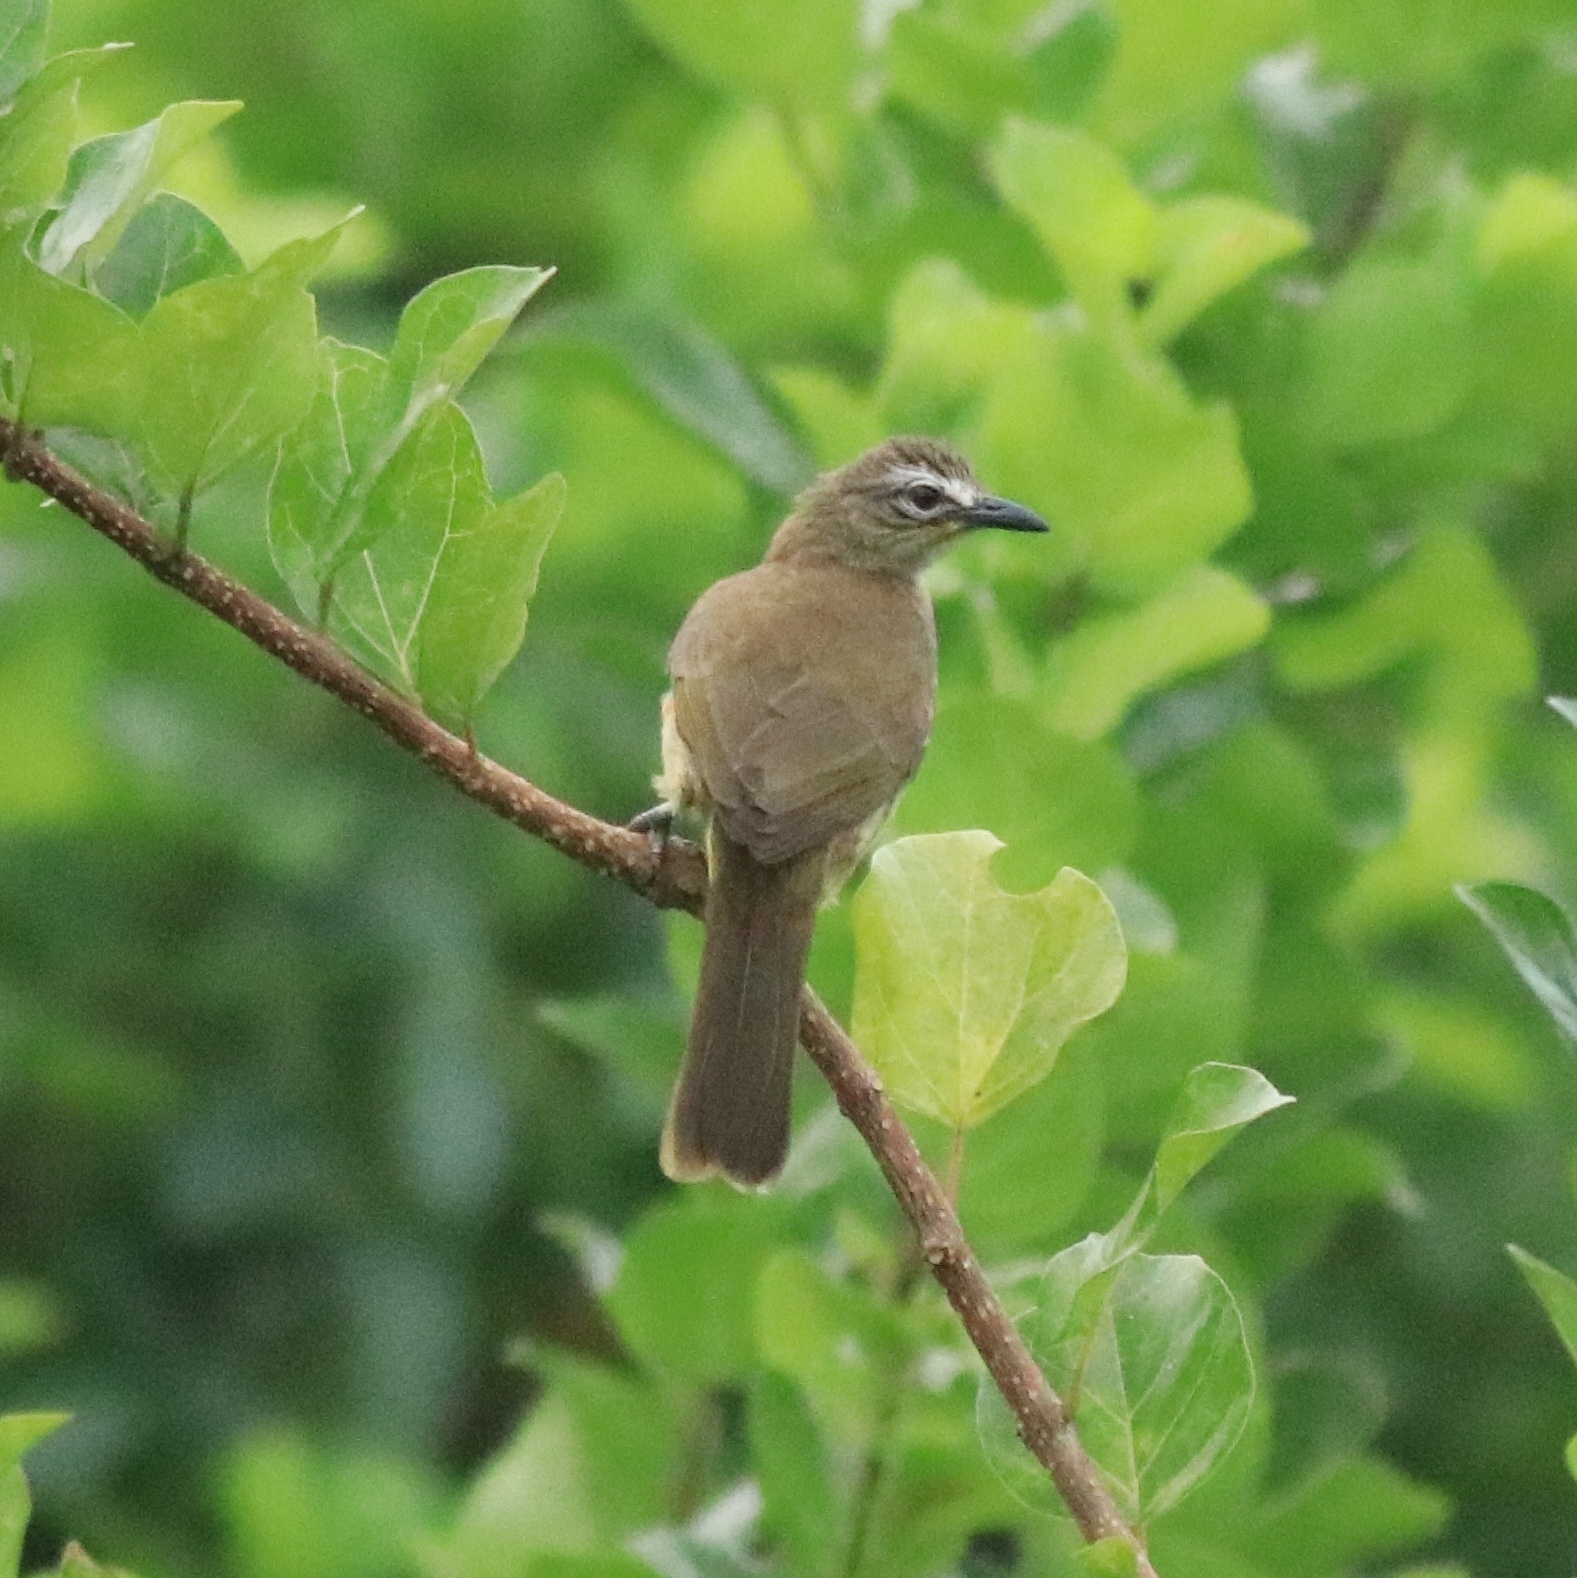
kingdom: Animalia
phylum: Chordata
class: Aves
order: Passeriformes
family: Pycnonotidae
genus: Pycnonotus
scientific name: Pycnonotus luteolus
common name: White-browed bulbul
